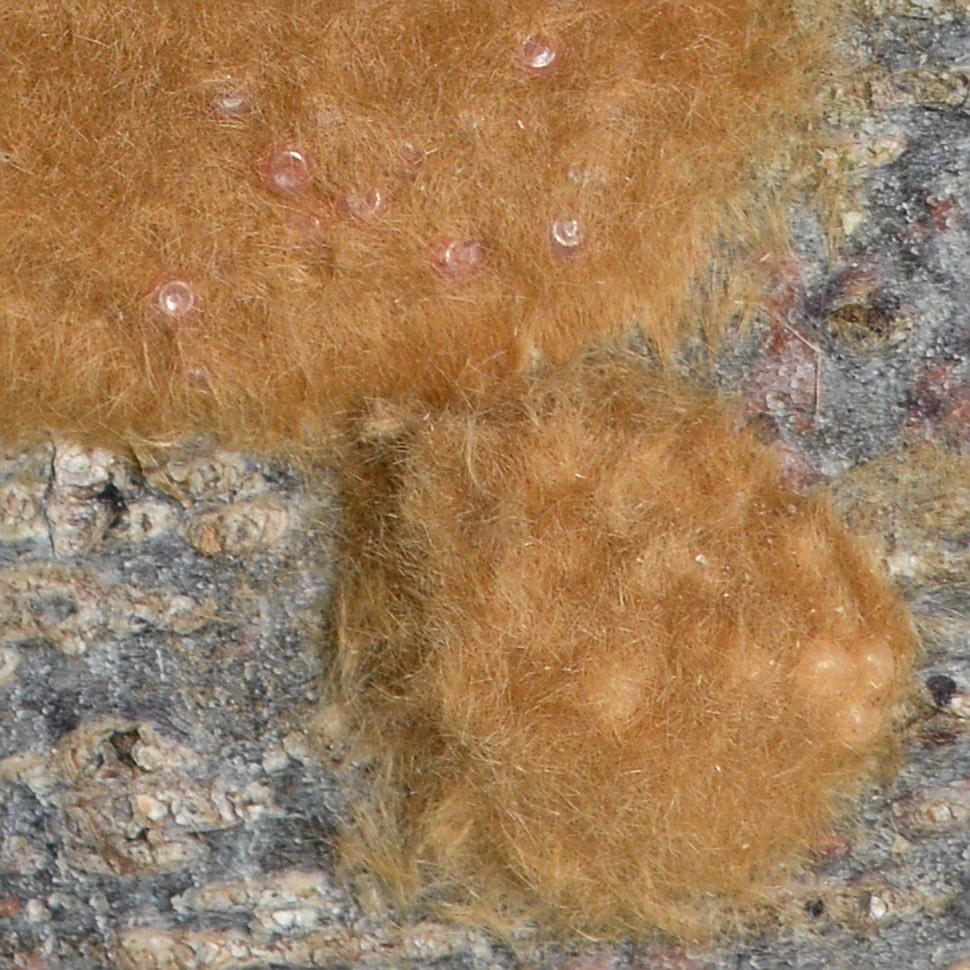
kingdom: Animalia
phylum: Arthropoda
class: Insecta
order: Lepidoptera
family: Erebidae
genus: Lymantria
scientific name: Lymantria dispar
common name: Gypsy moth
